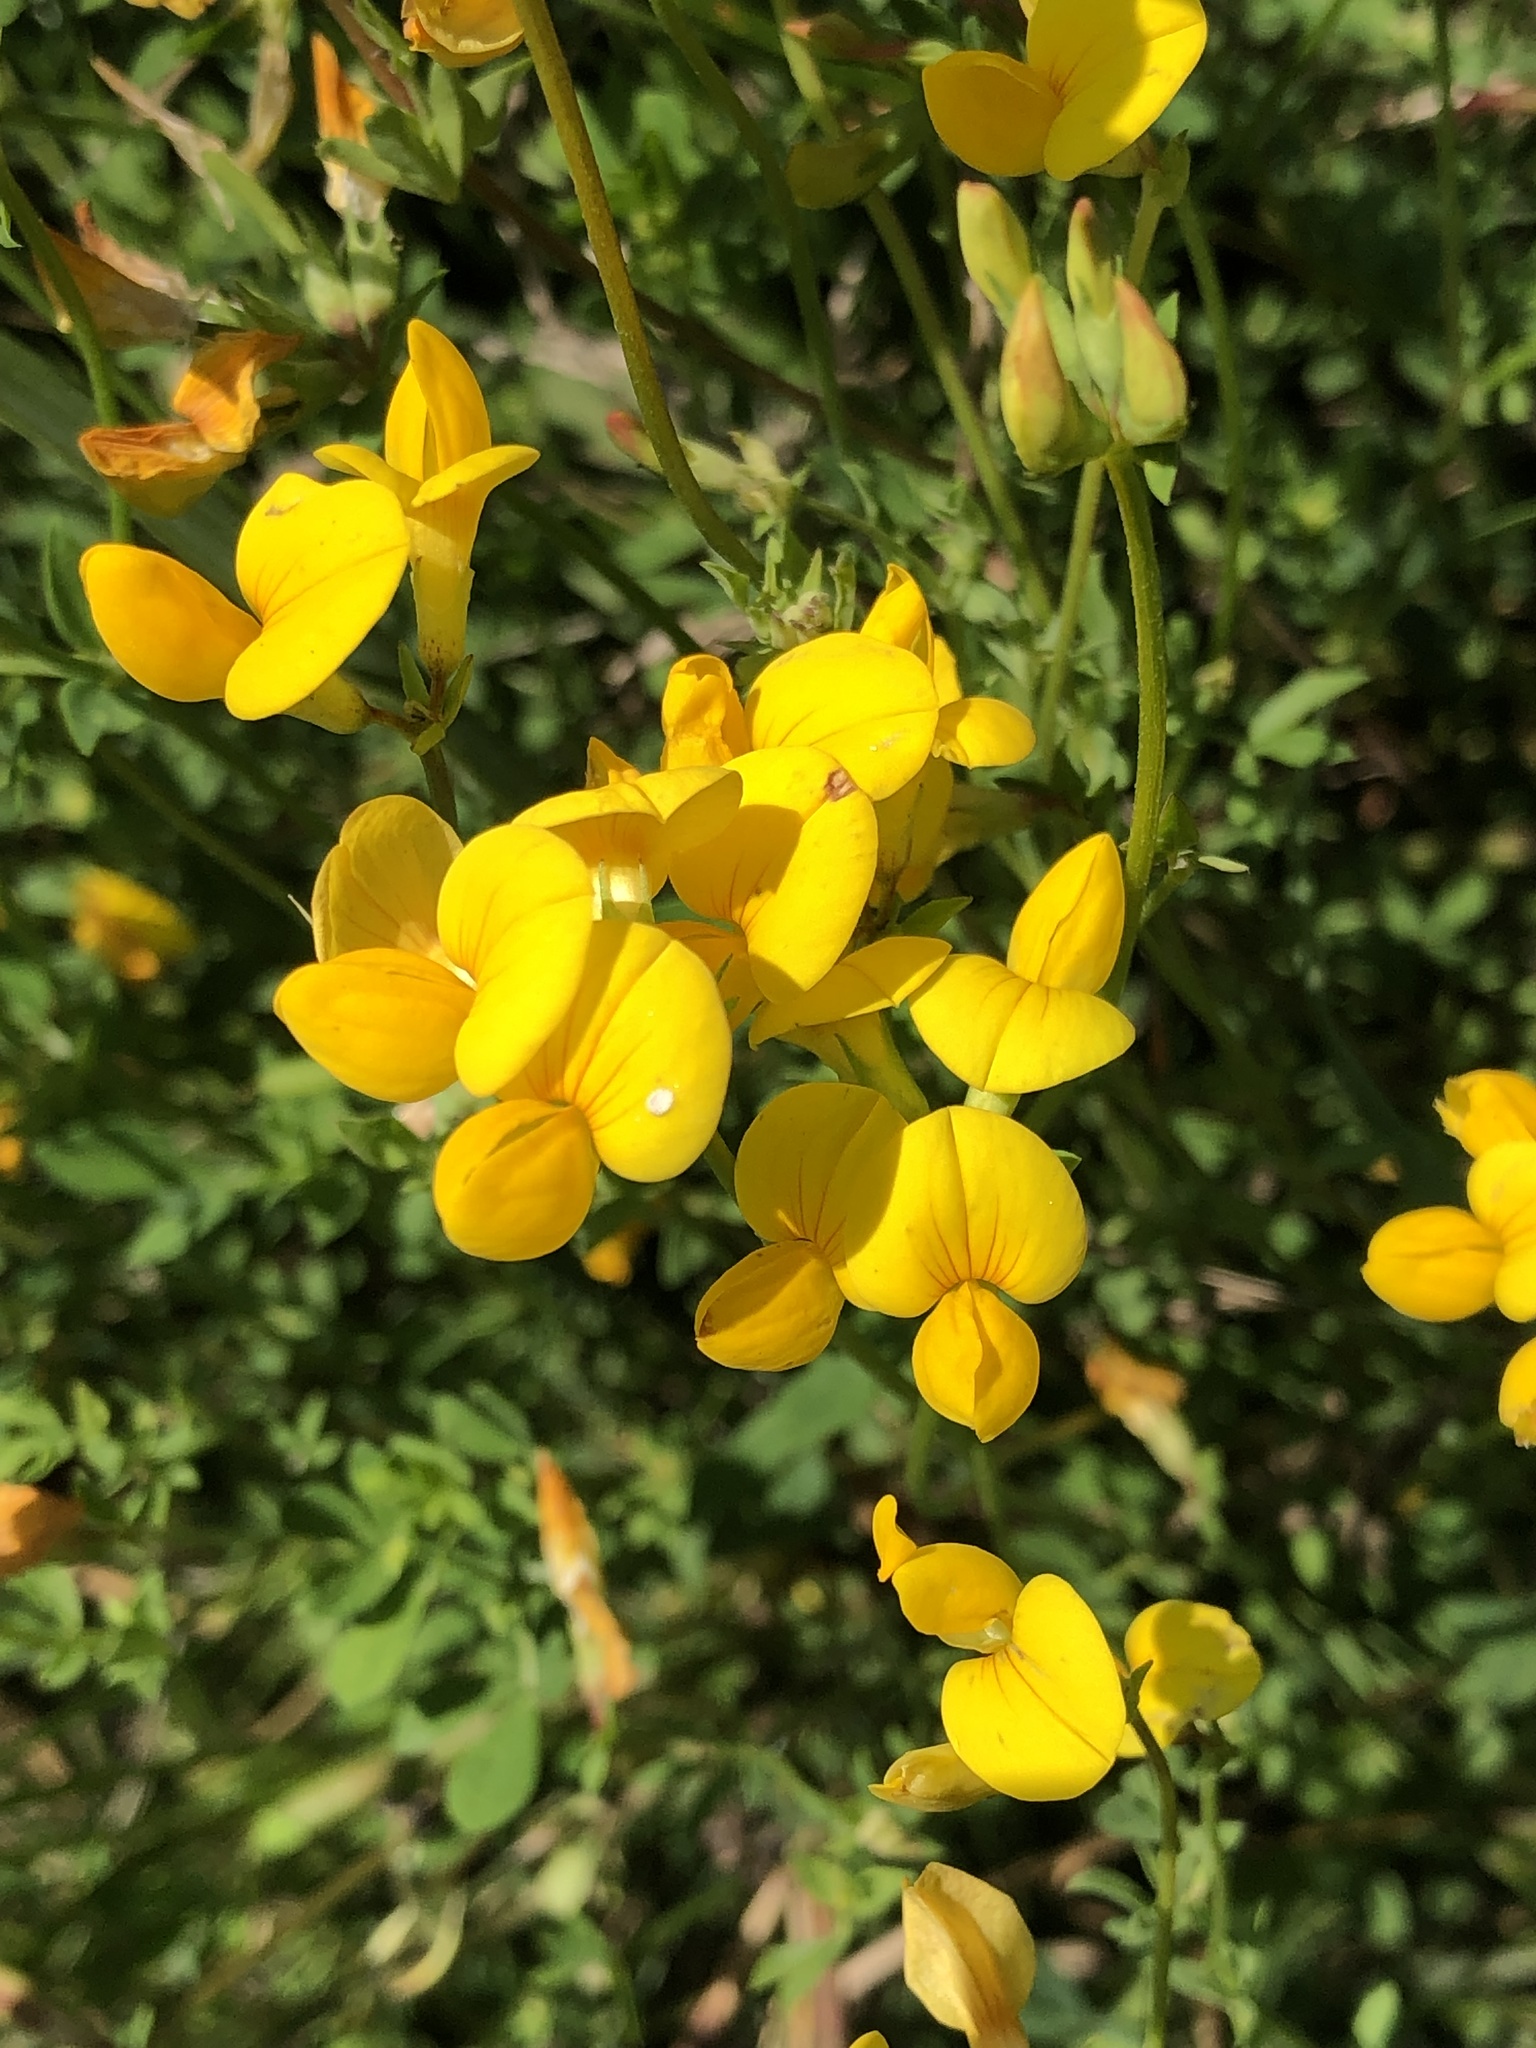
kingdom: Plantae
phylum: Tracheophyta
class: Magnoliopsida
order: Fabales
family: Fabaceae
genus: Lotus
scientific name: Lotus corniculatus
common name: Common bird's-foot-trefoil
